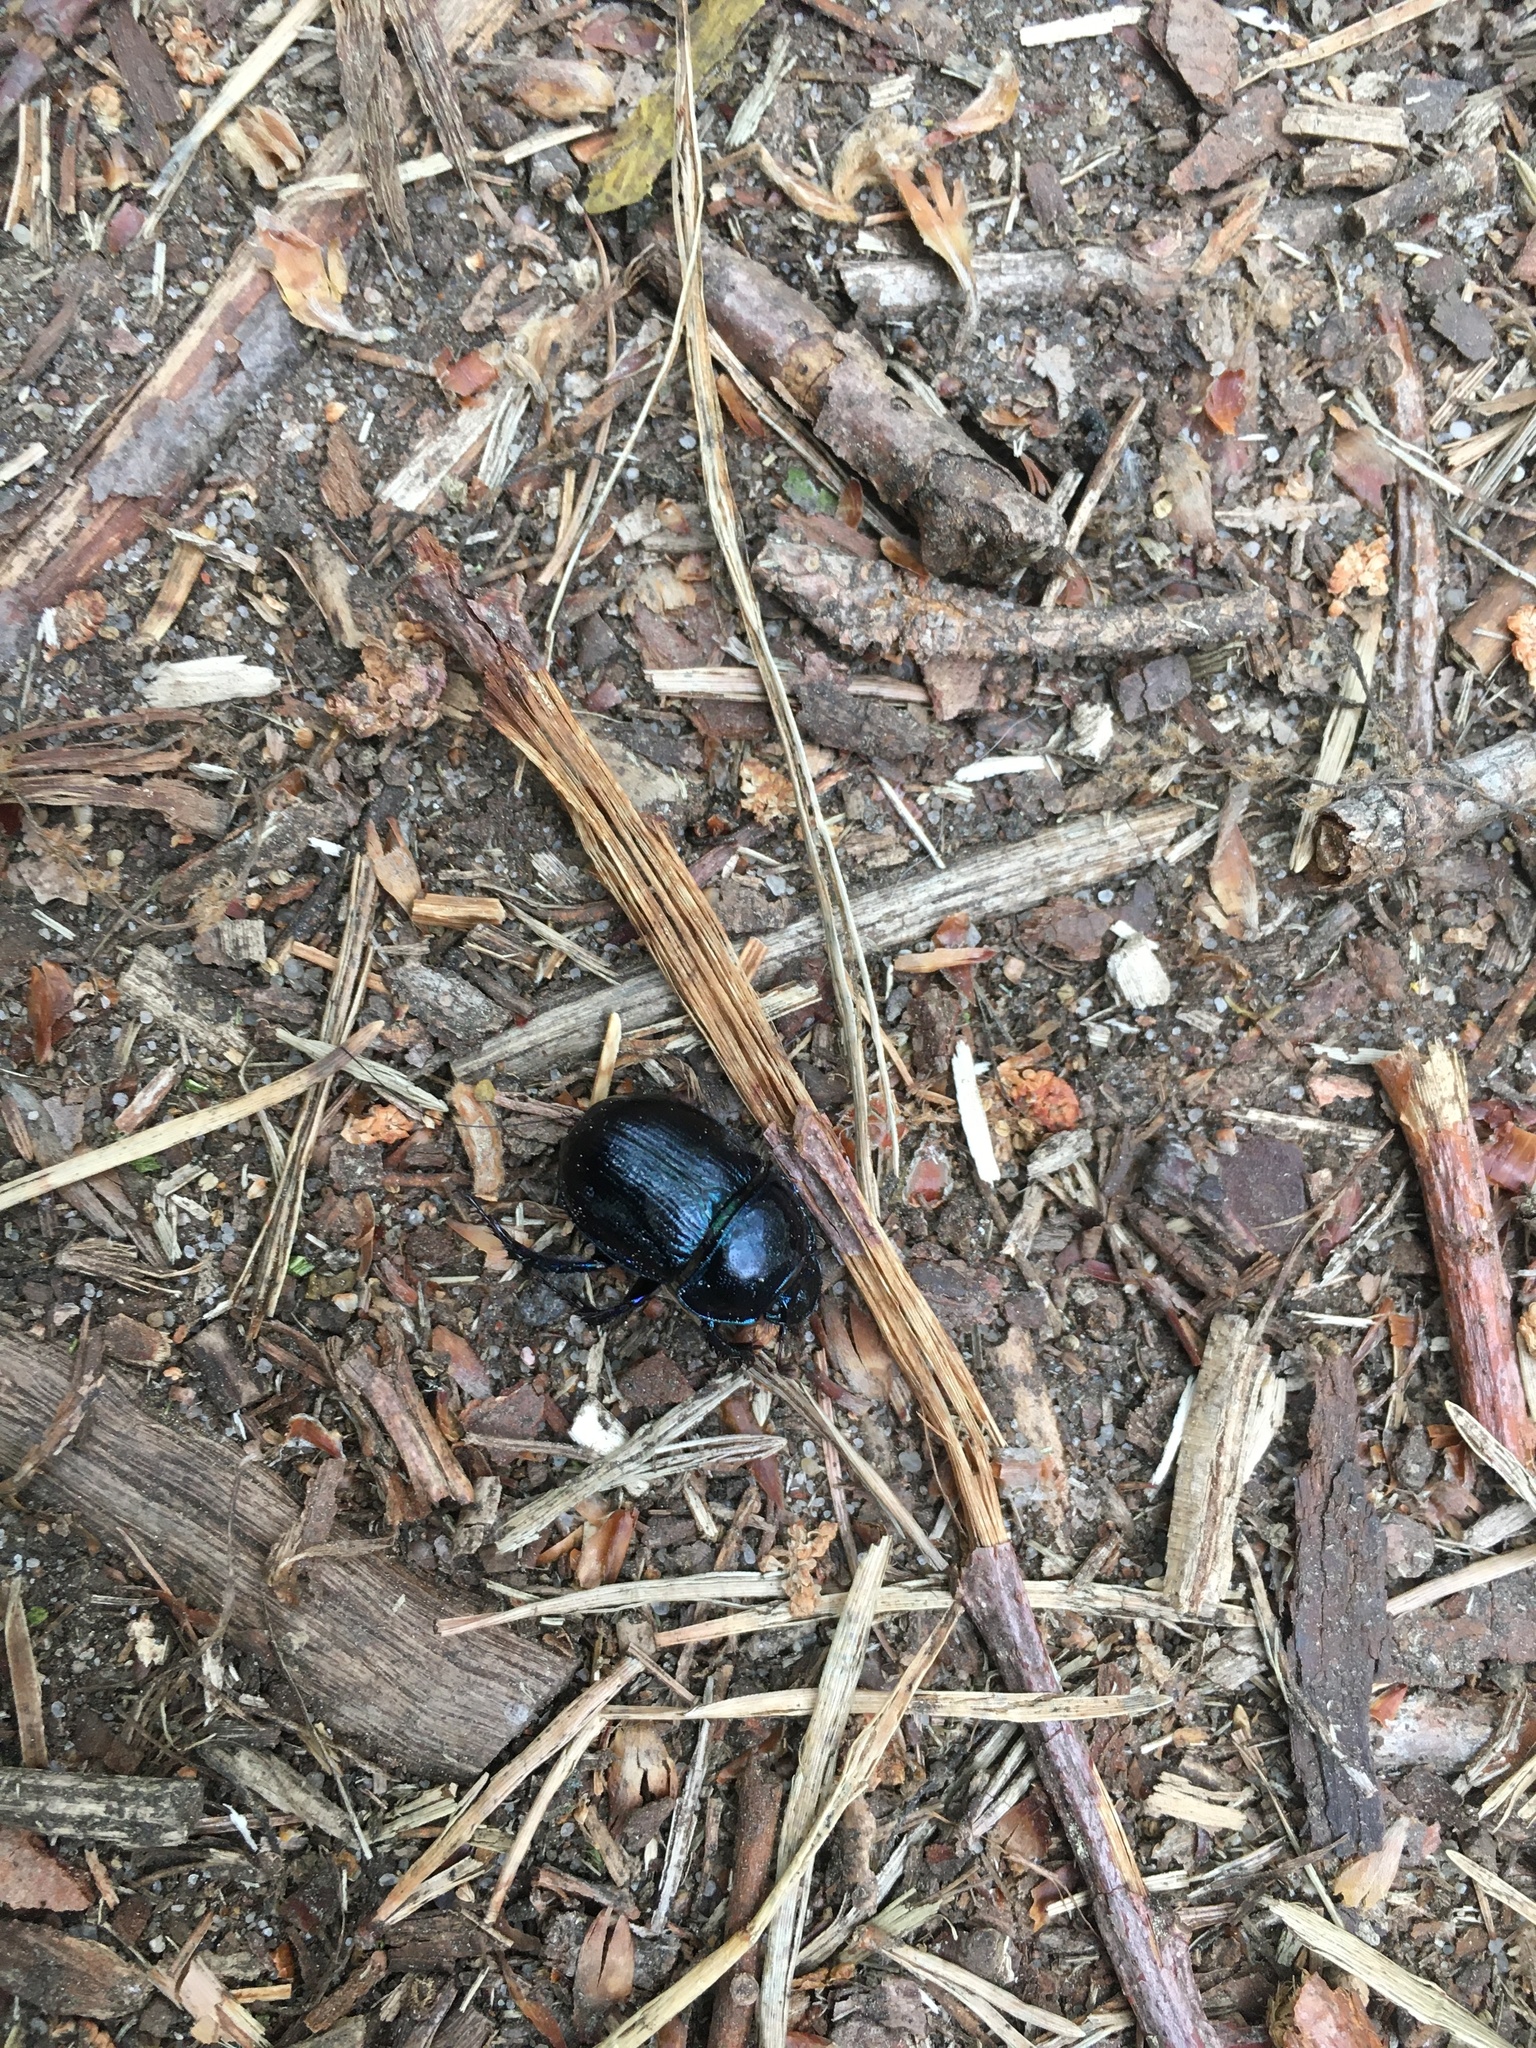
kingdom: Animalia
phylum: Arthropoda
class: Insecta
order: Coleoptera
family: Geotrupidae
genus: Anoplotrupes
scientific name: Anoplotrupes stercorosus
